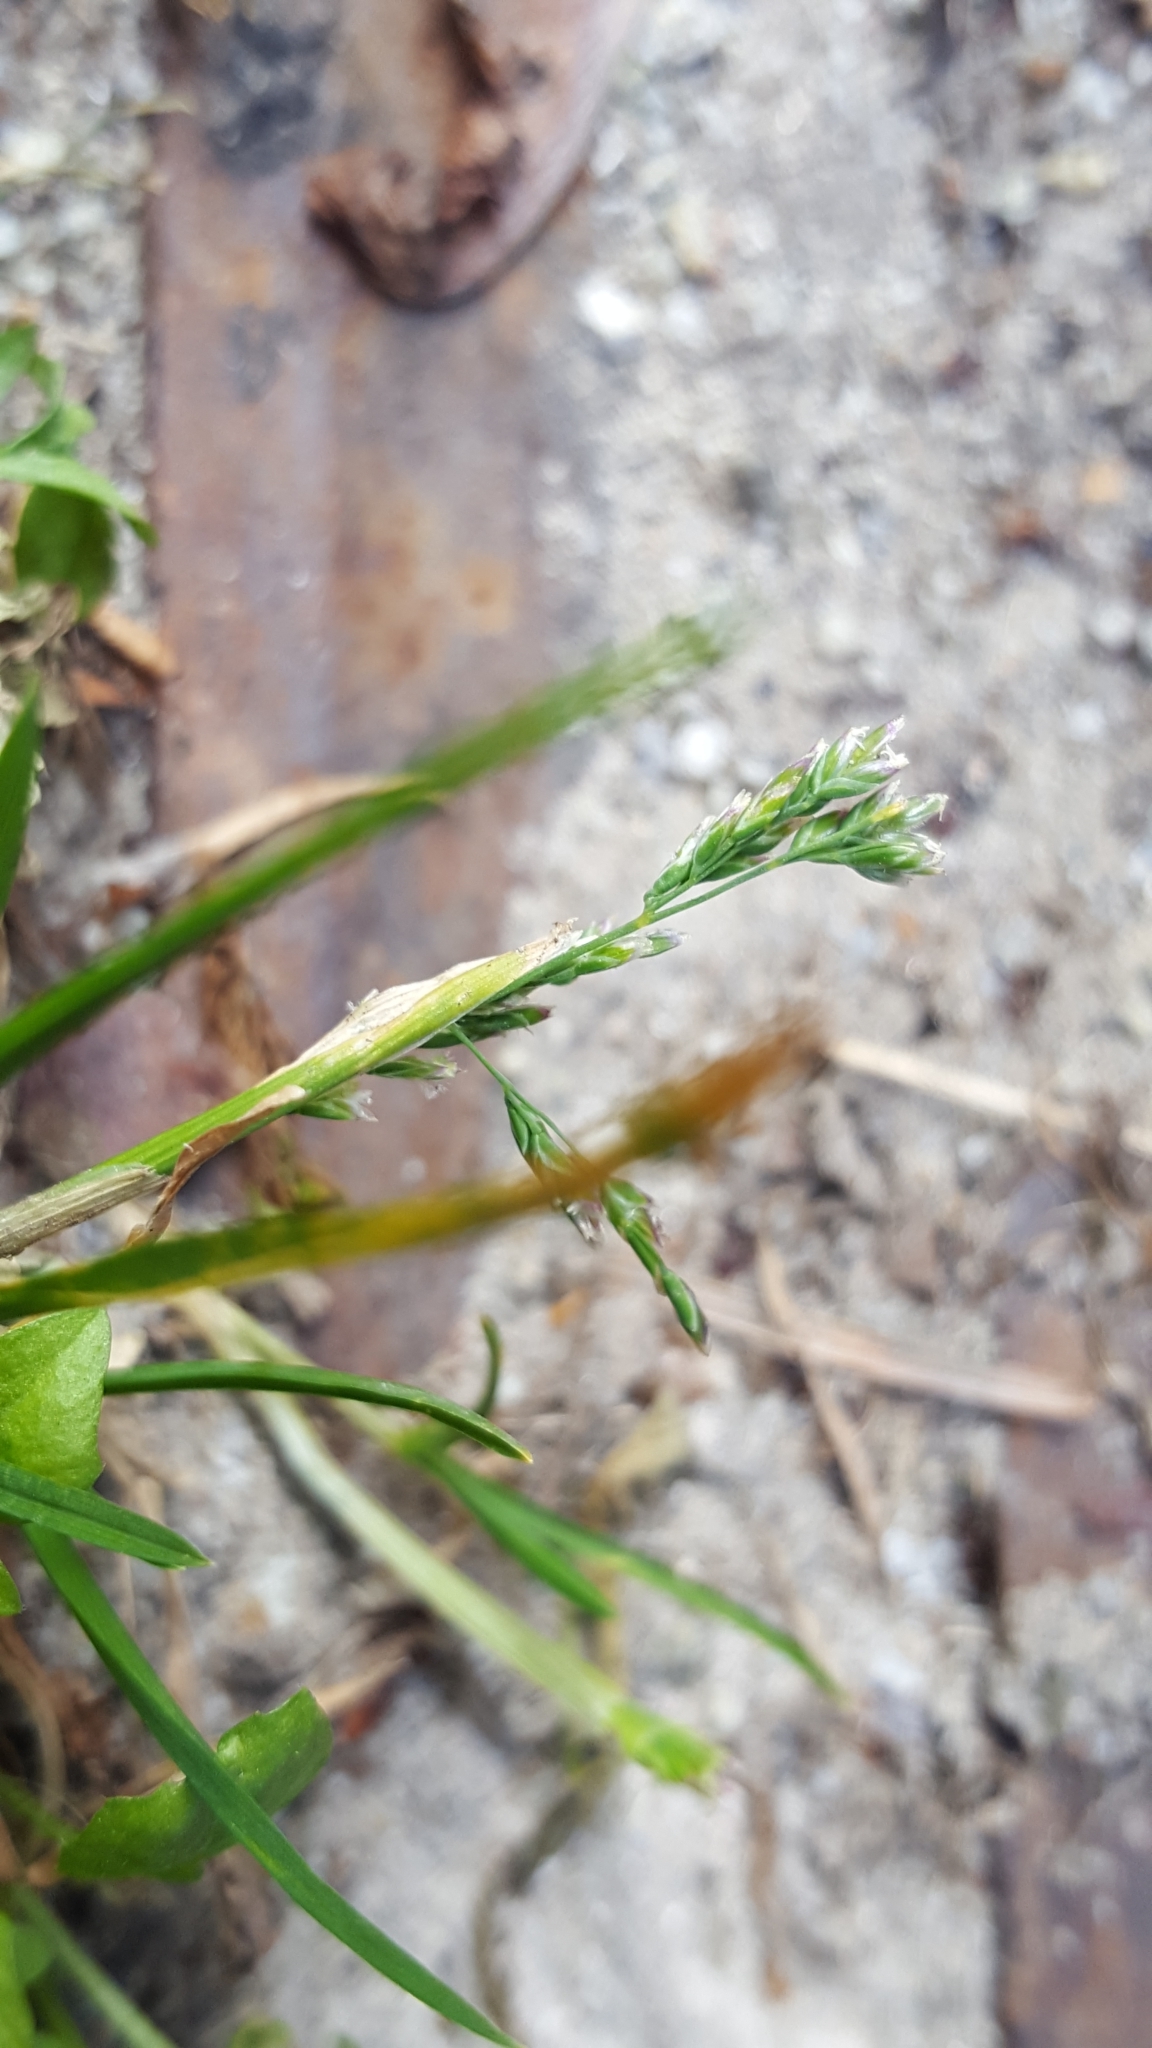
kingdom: Plantae
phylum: Tracheophyta
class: Liliopsida
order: Poales
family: Poaceae
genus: Poa
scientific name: Poa annua
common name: Annual bluegrass
